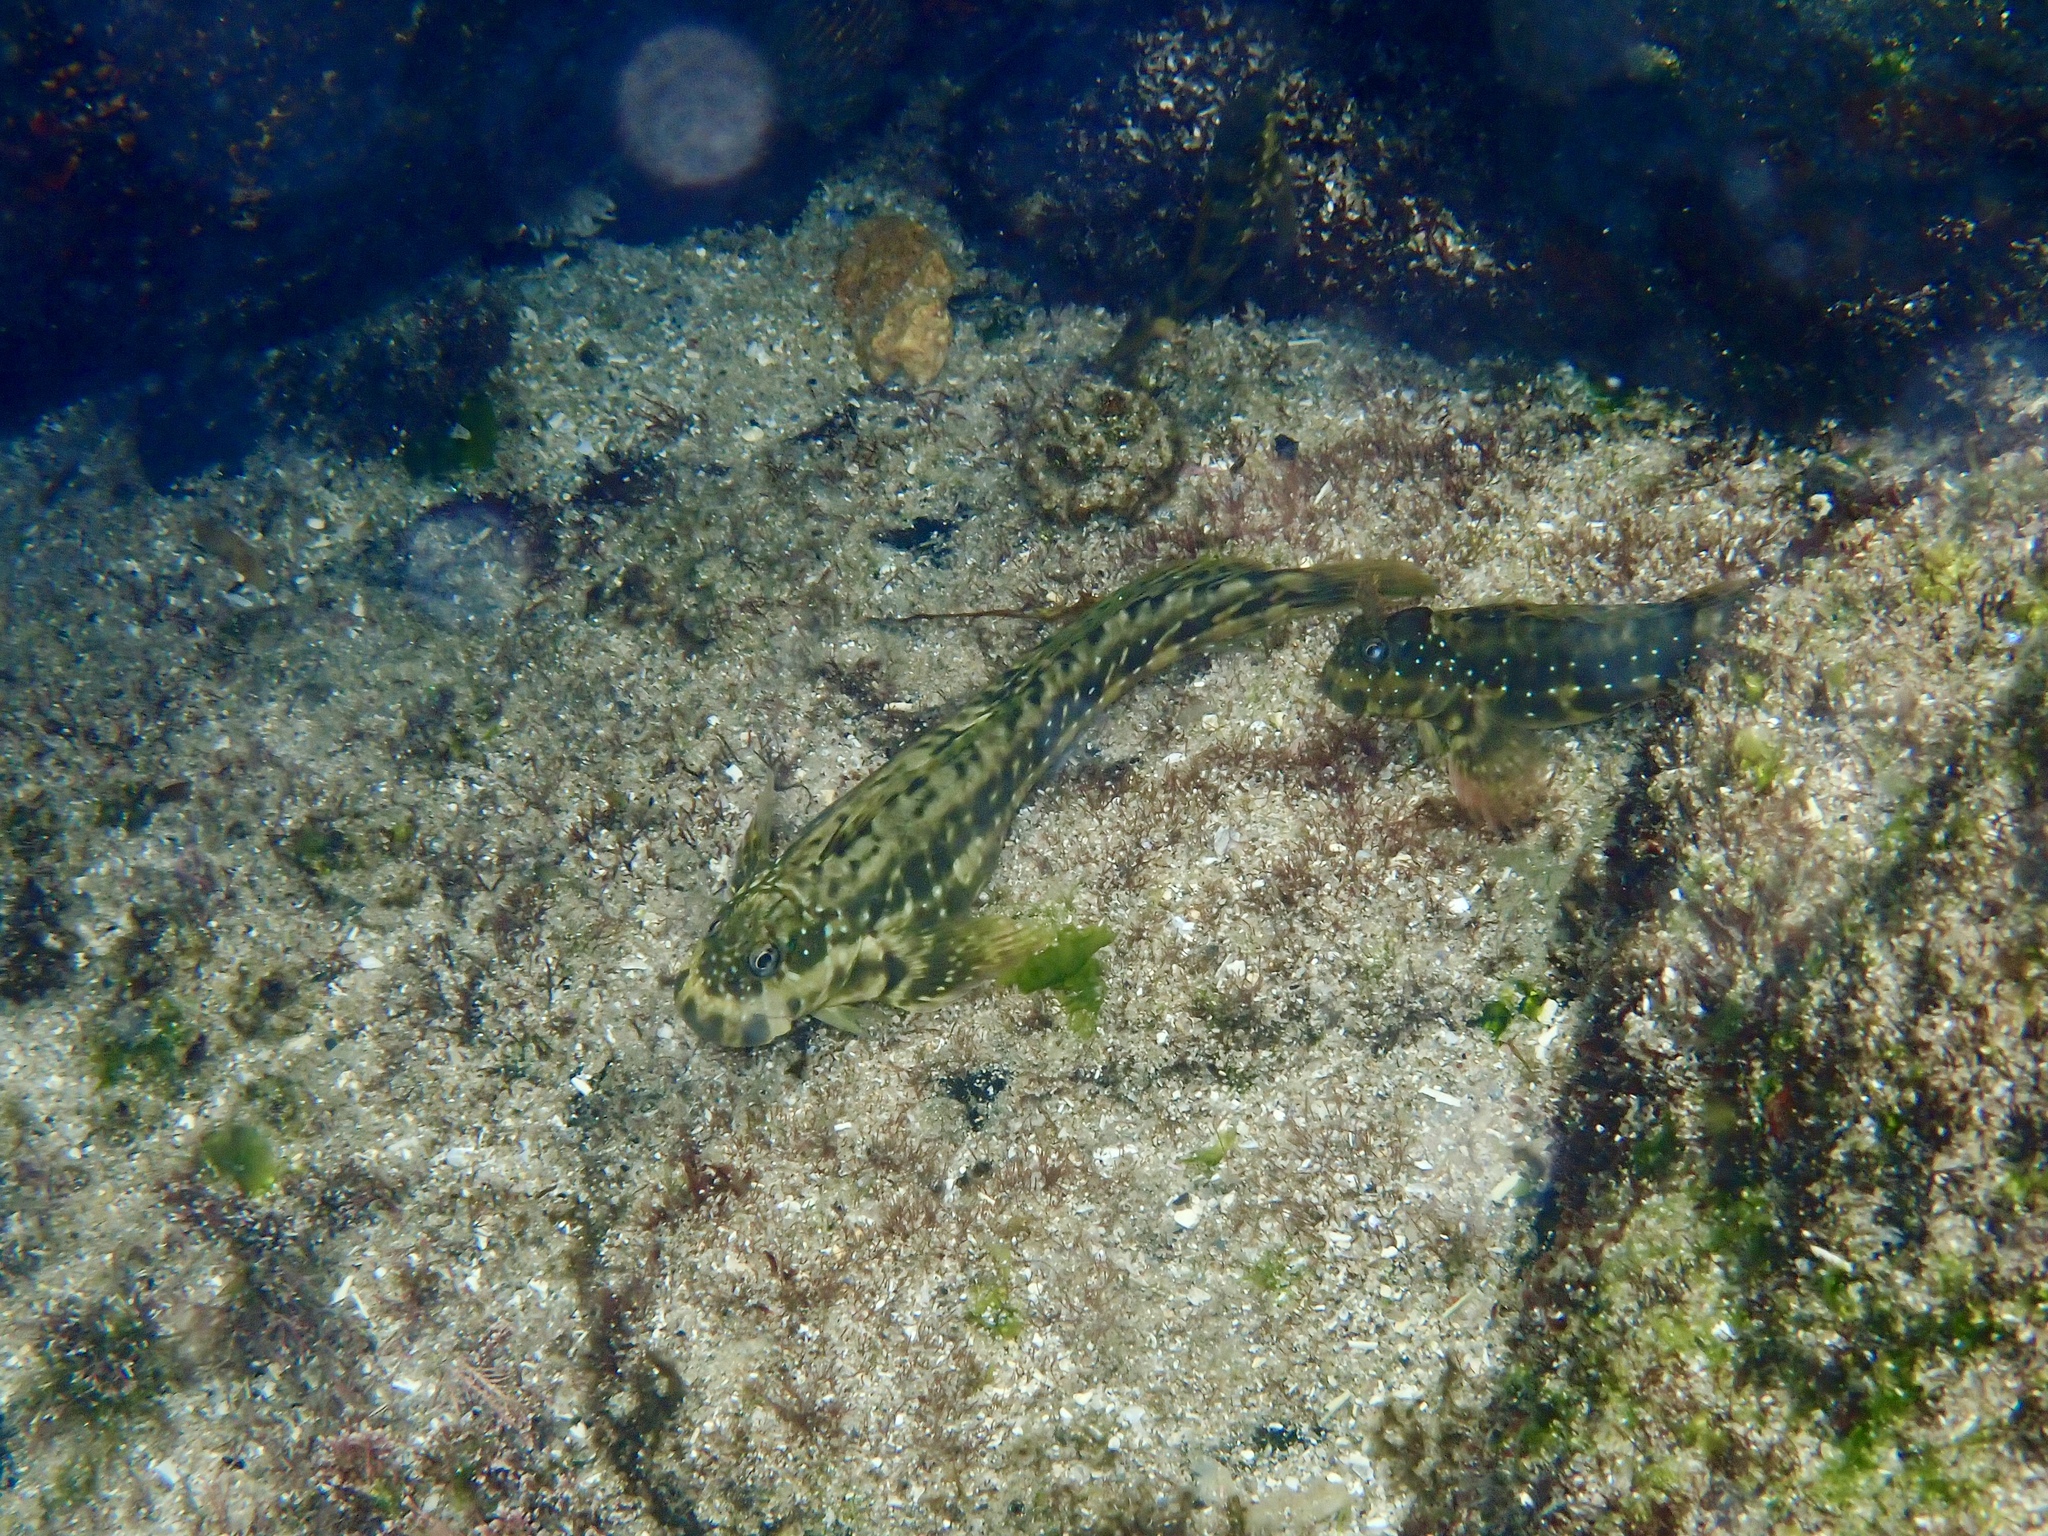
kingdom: Animalia
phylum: Chordata
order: Perciformes
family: Blenniidae
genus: Istiblennius
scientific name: Istiblennius meleagris
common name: Peacock rockskipper
